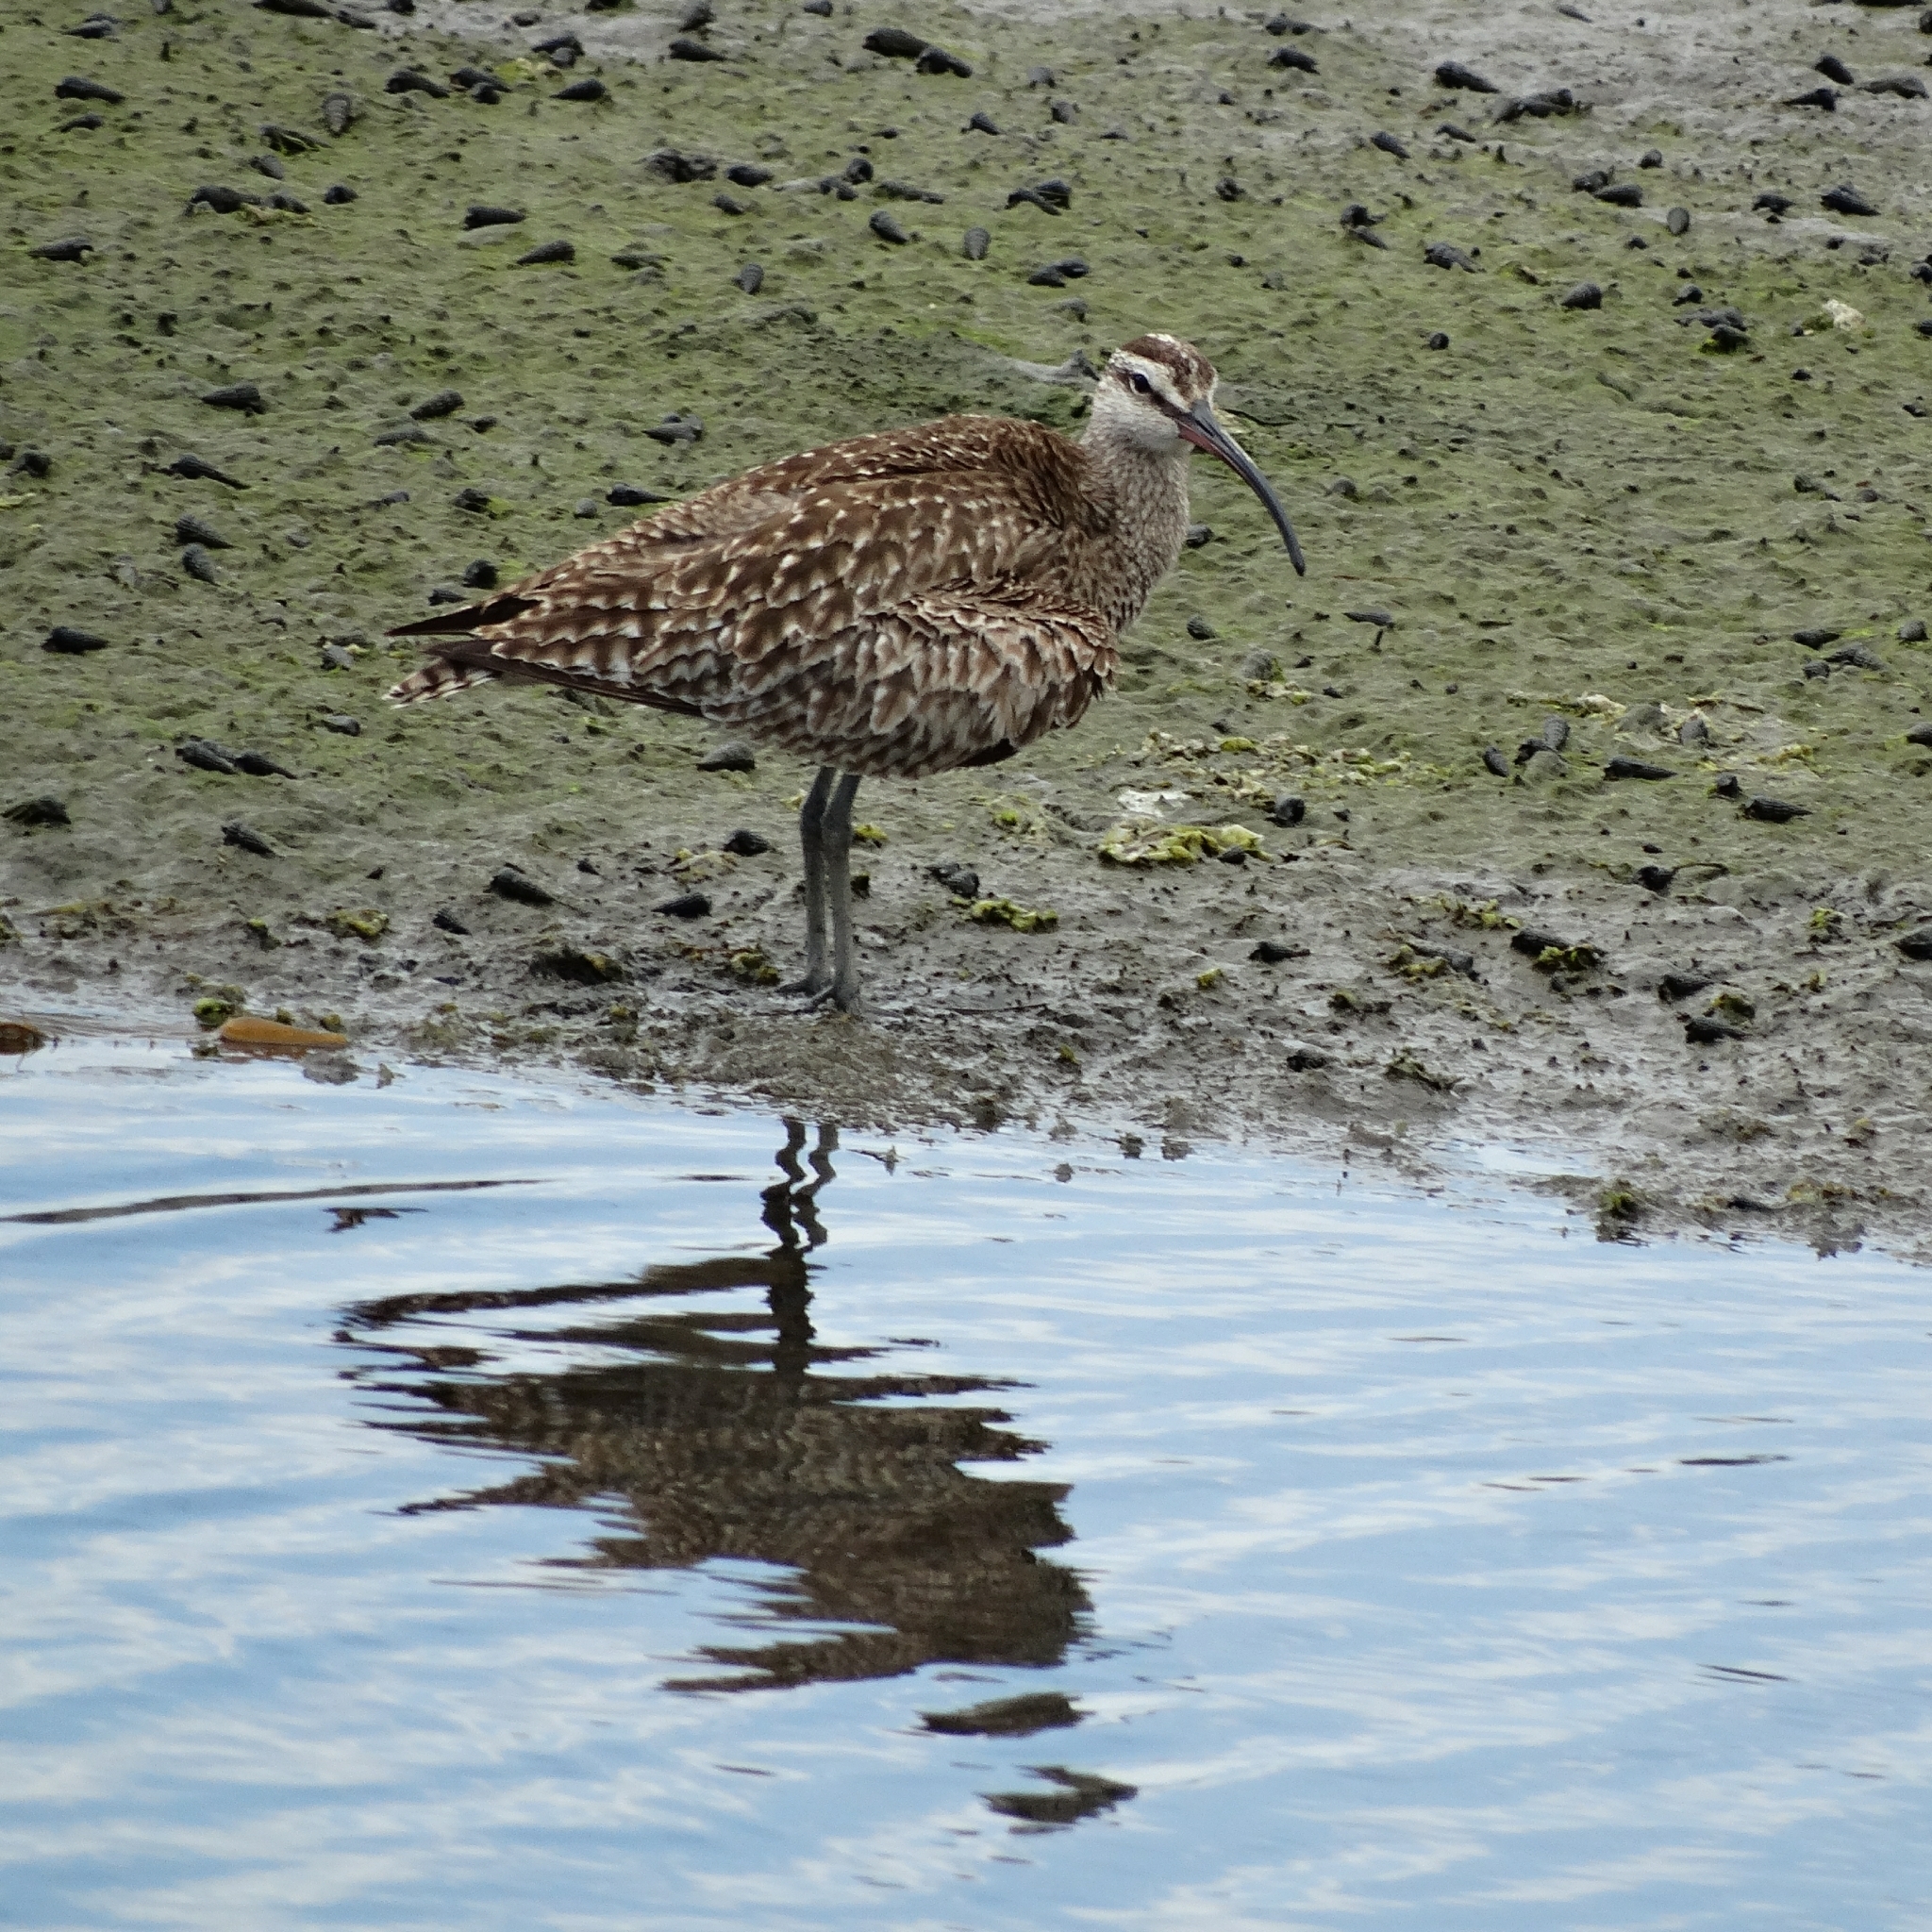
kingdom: Animalia
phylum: Chordata
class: Aves
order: Charadriiformes
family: Scolopacidae
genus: Numenius
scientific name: Numenius phaeopus
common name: Whimbrel
